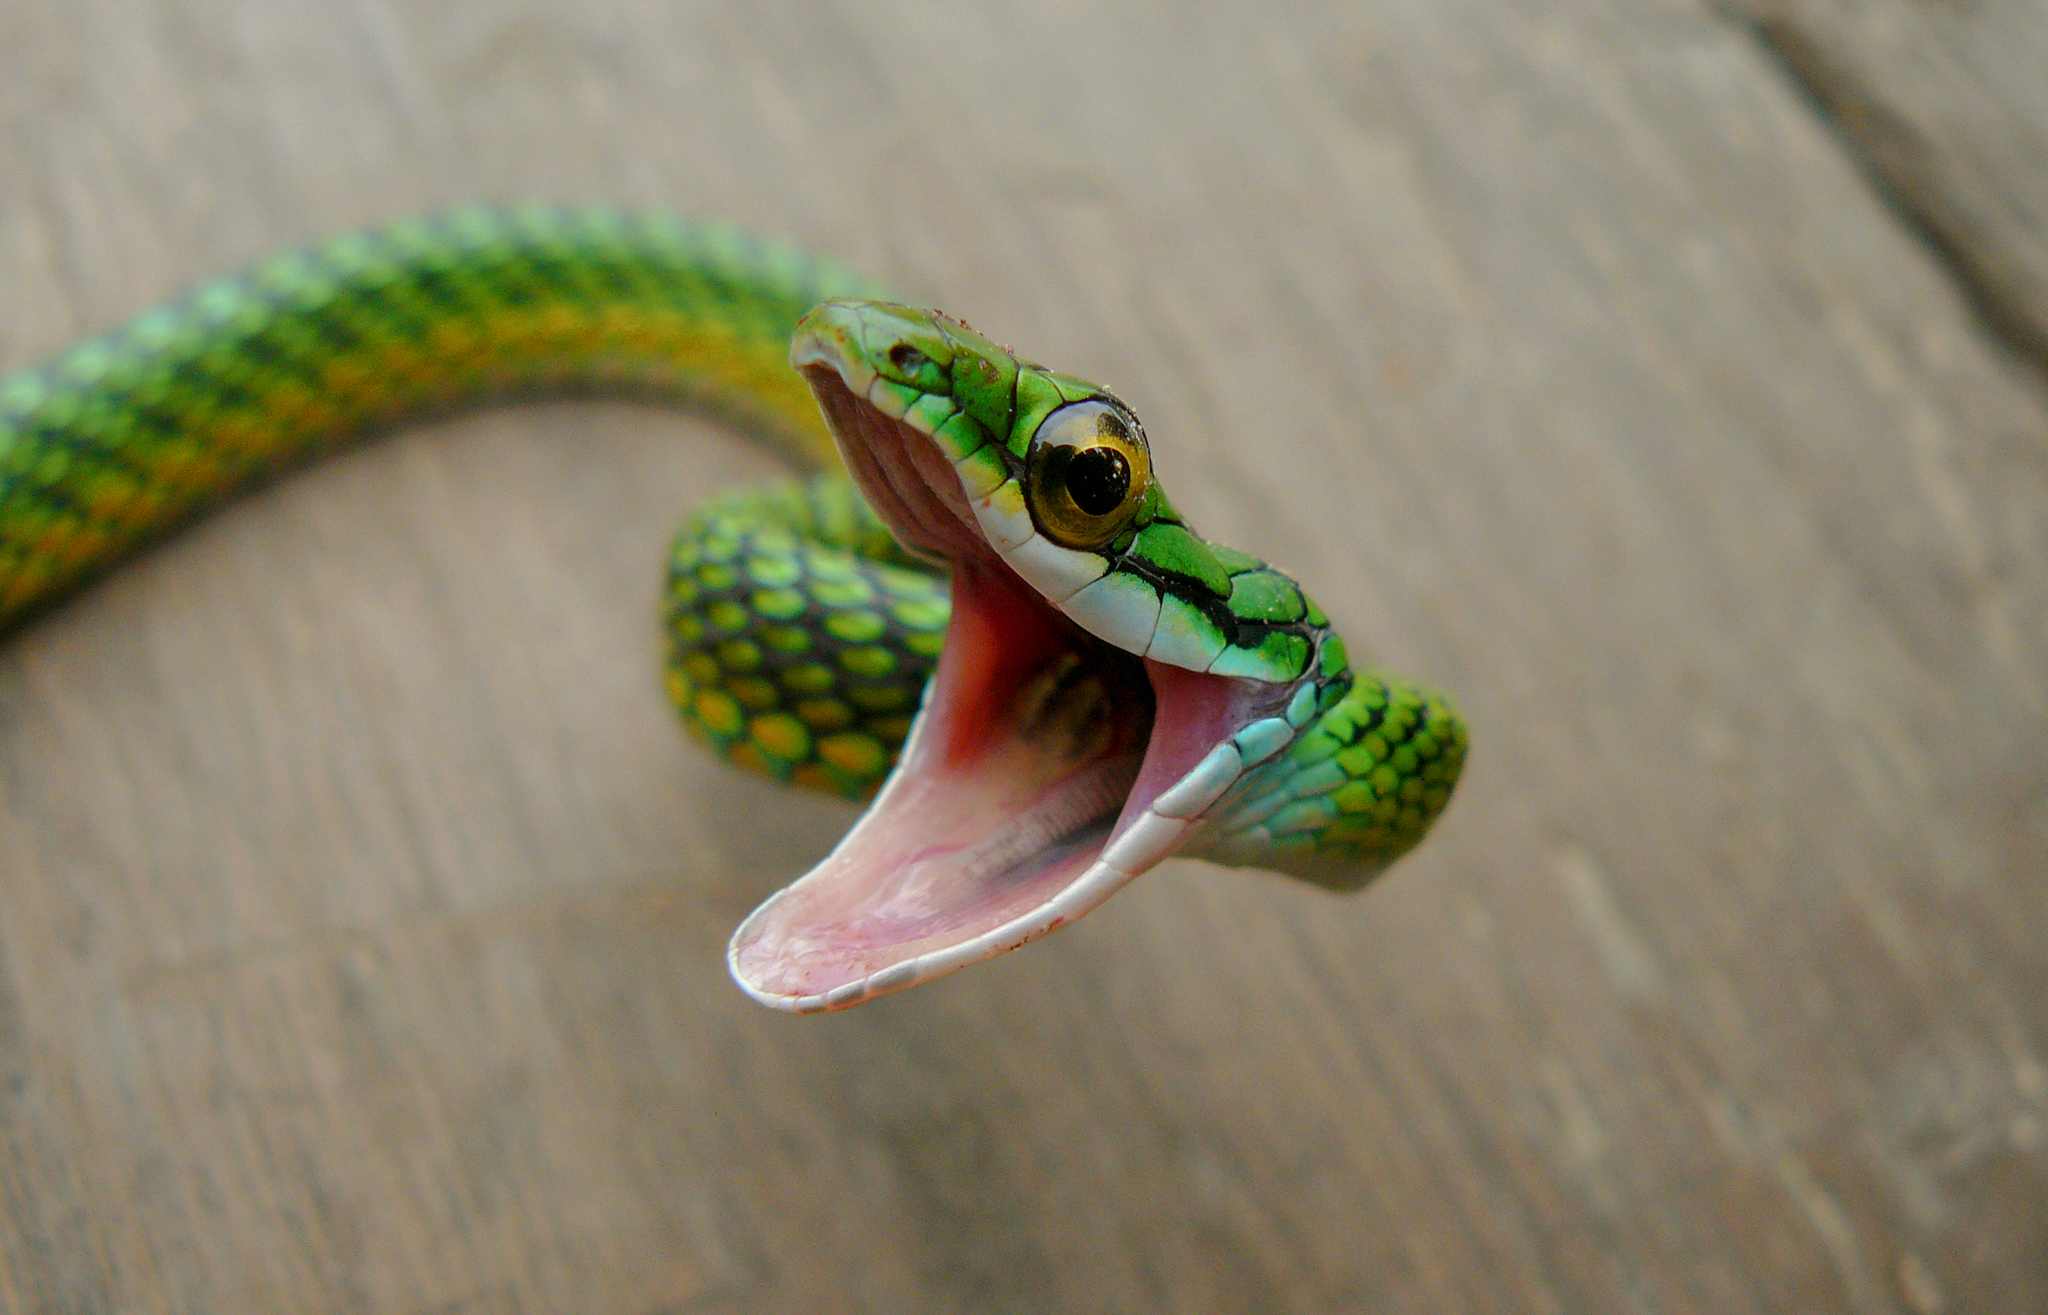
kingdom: Animalia
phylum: Chordata
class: Squamata
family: Colubridae
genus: Leptophis
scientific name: Leptophis ahaetulla
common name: Parrot snake
